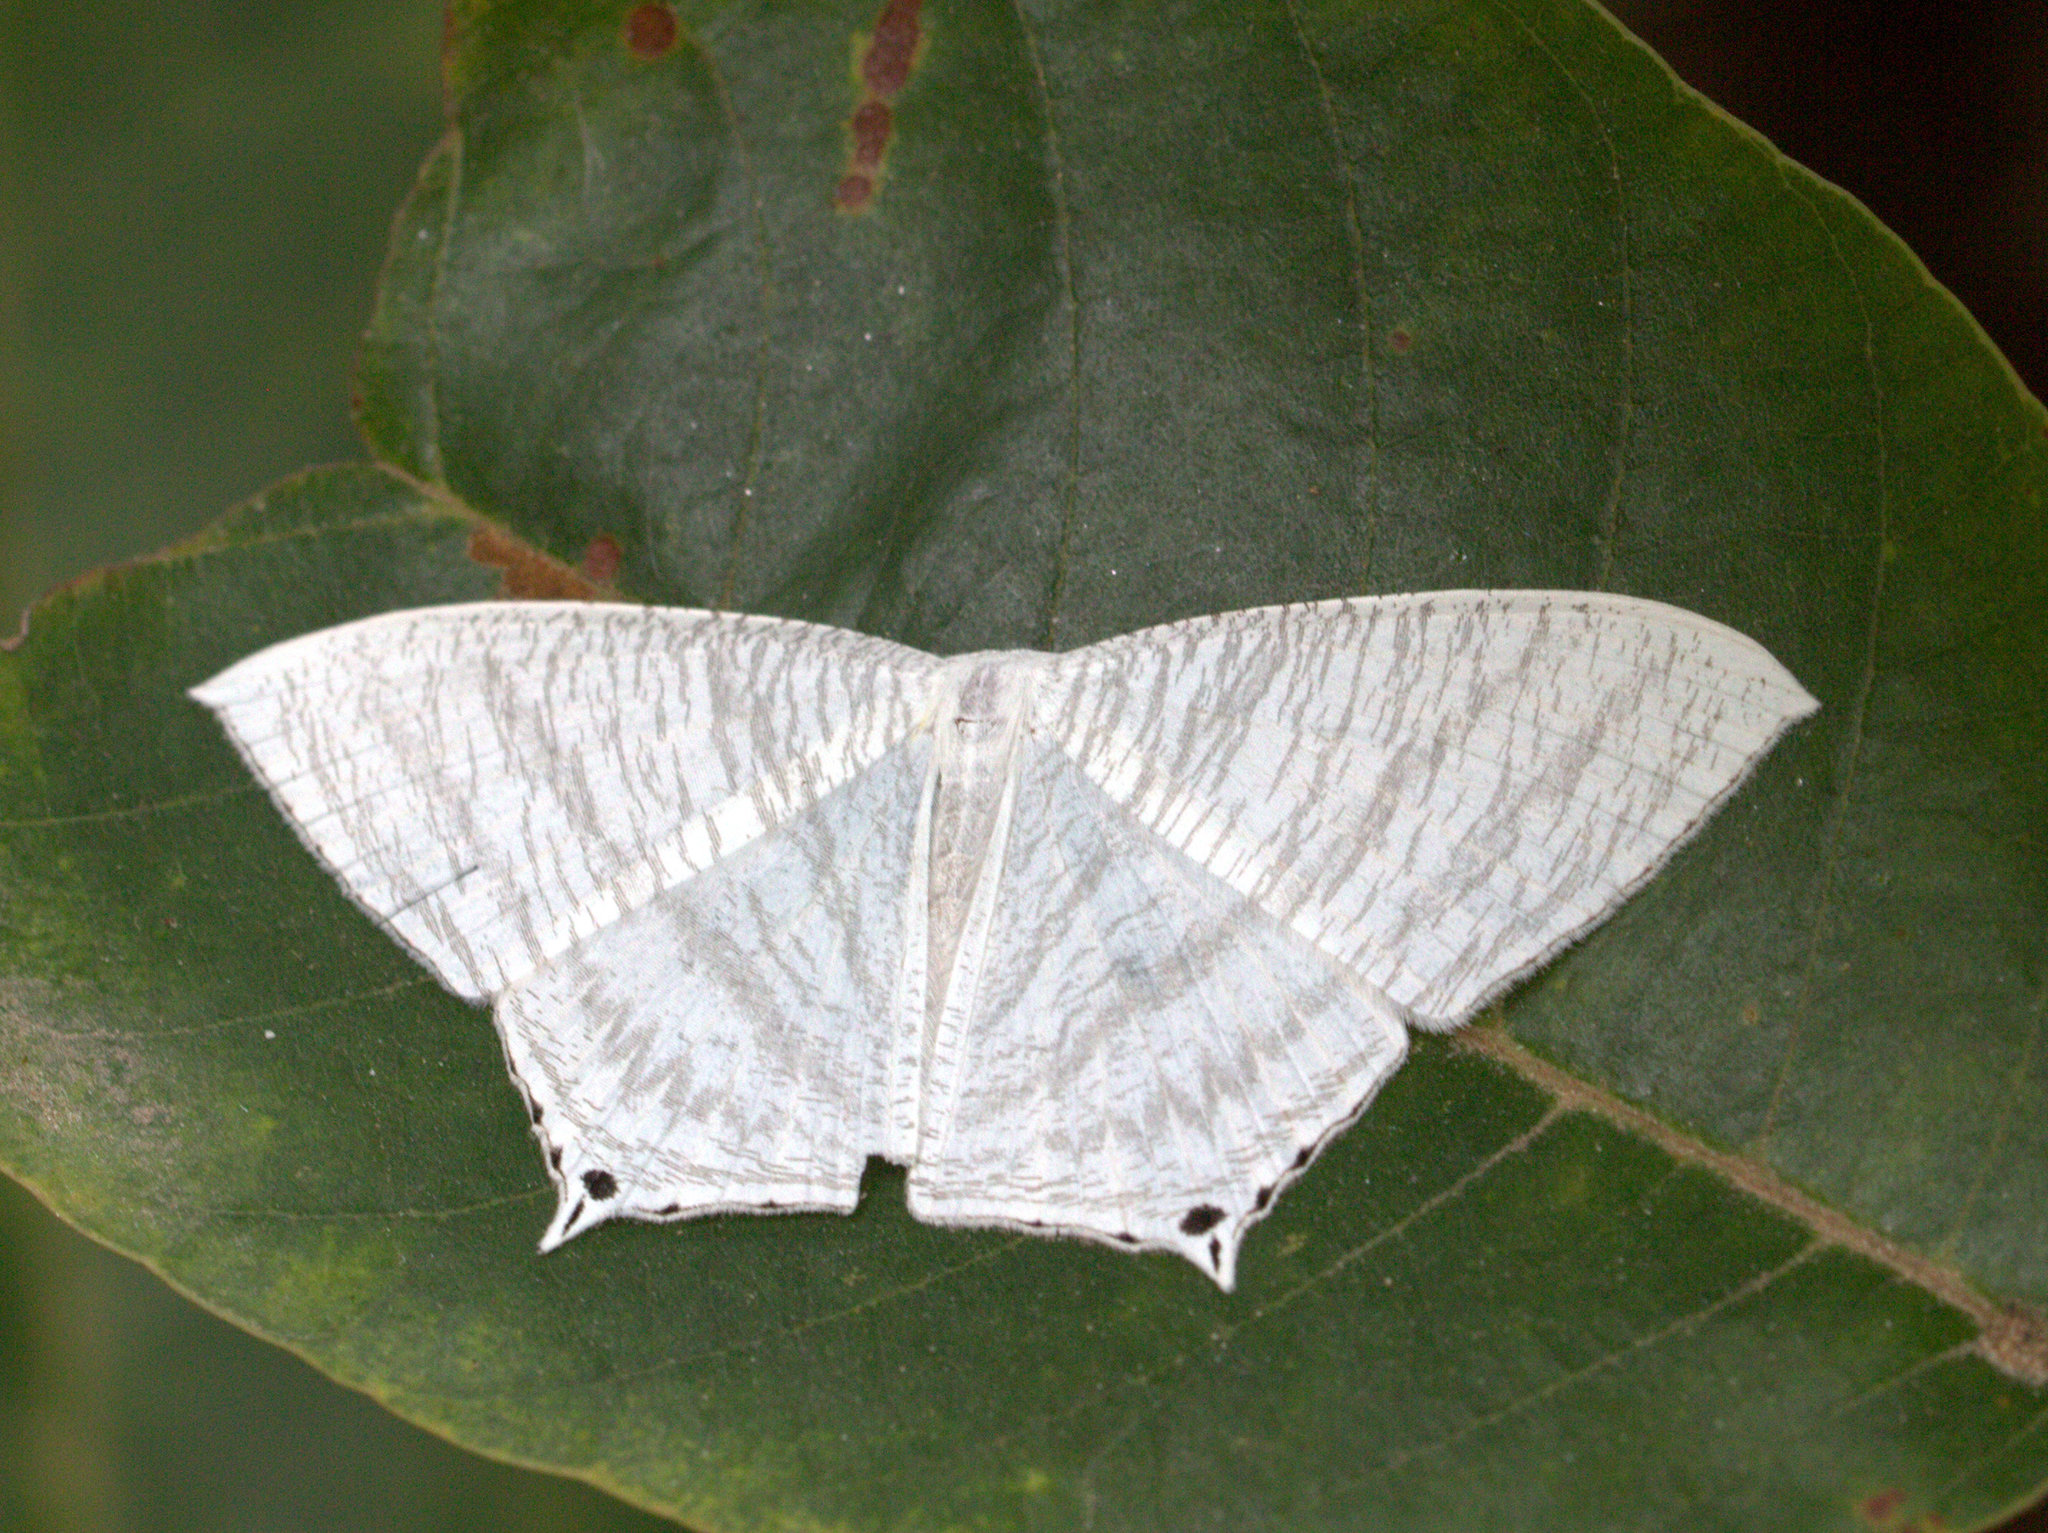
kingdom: Animalia
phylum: Arthropoda
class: Insecta
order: Lepidoptera
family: Uraniidae
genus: Micronia
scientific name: Micronia aculeata
